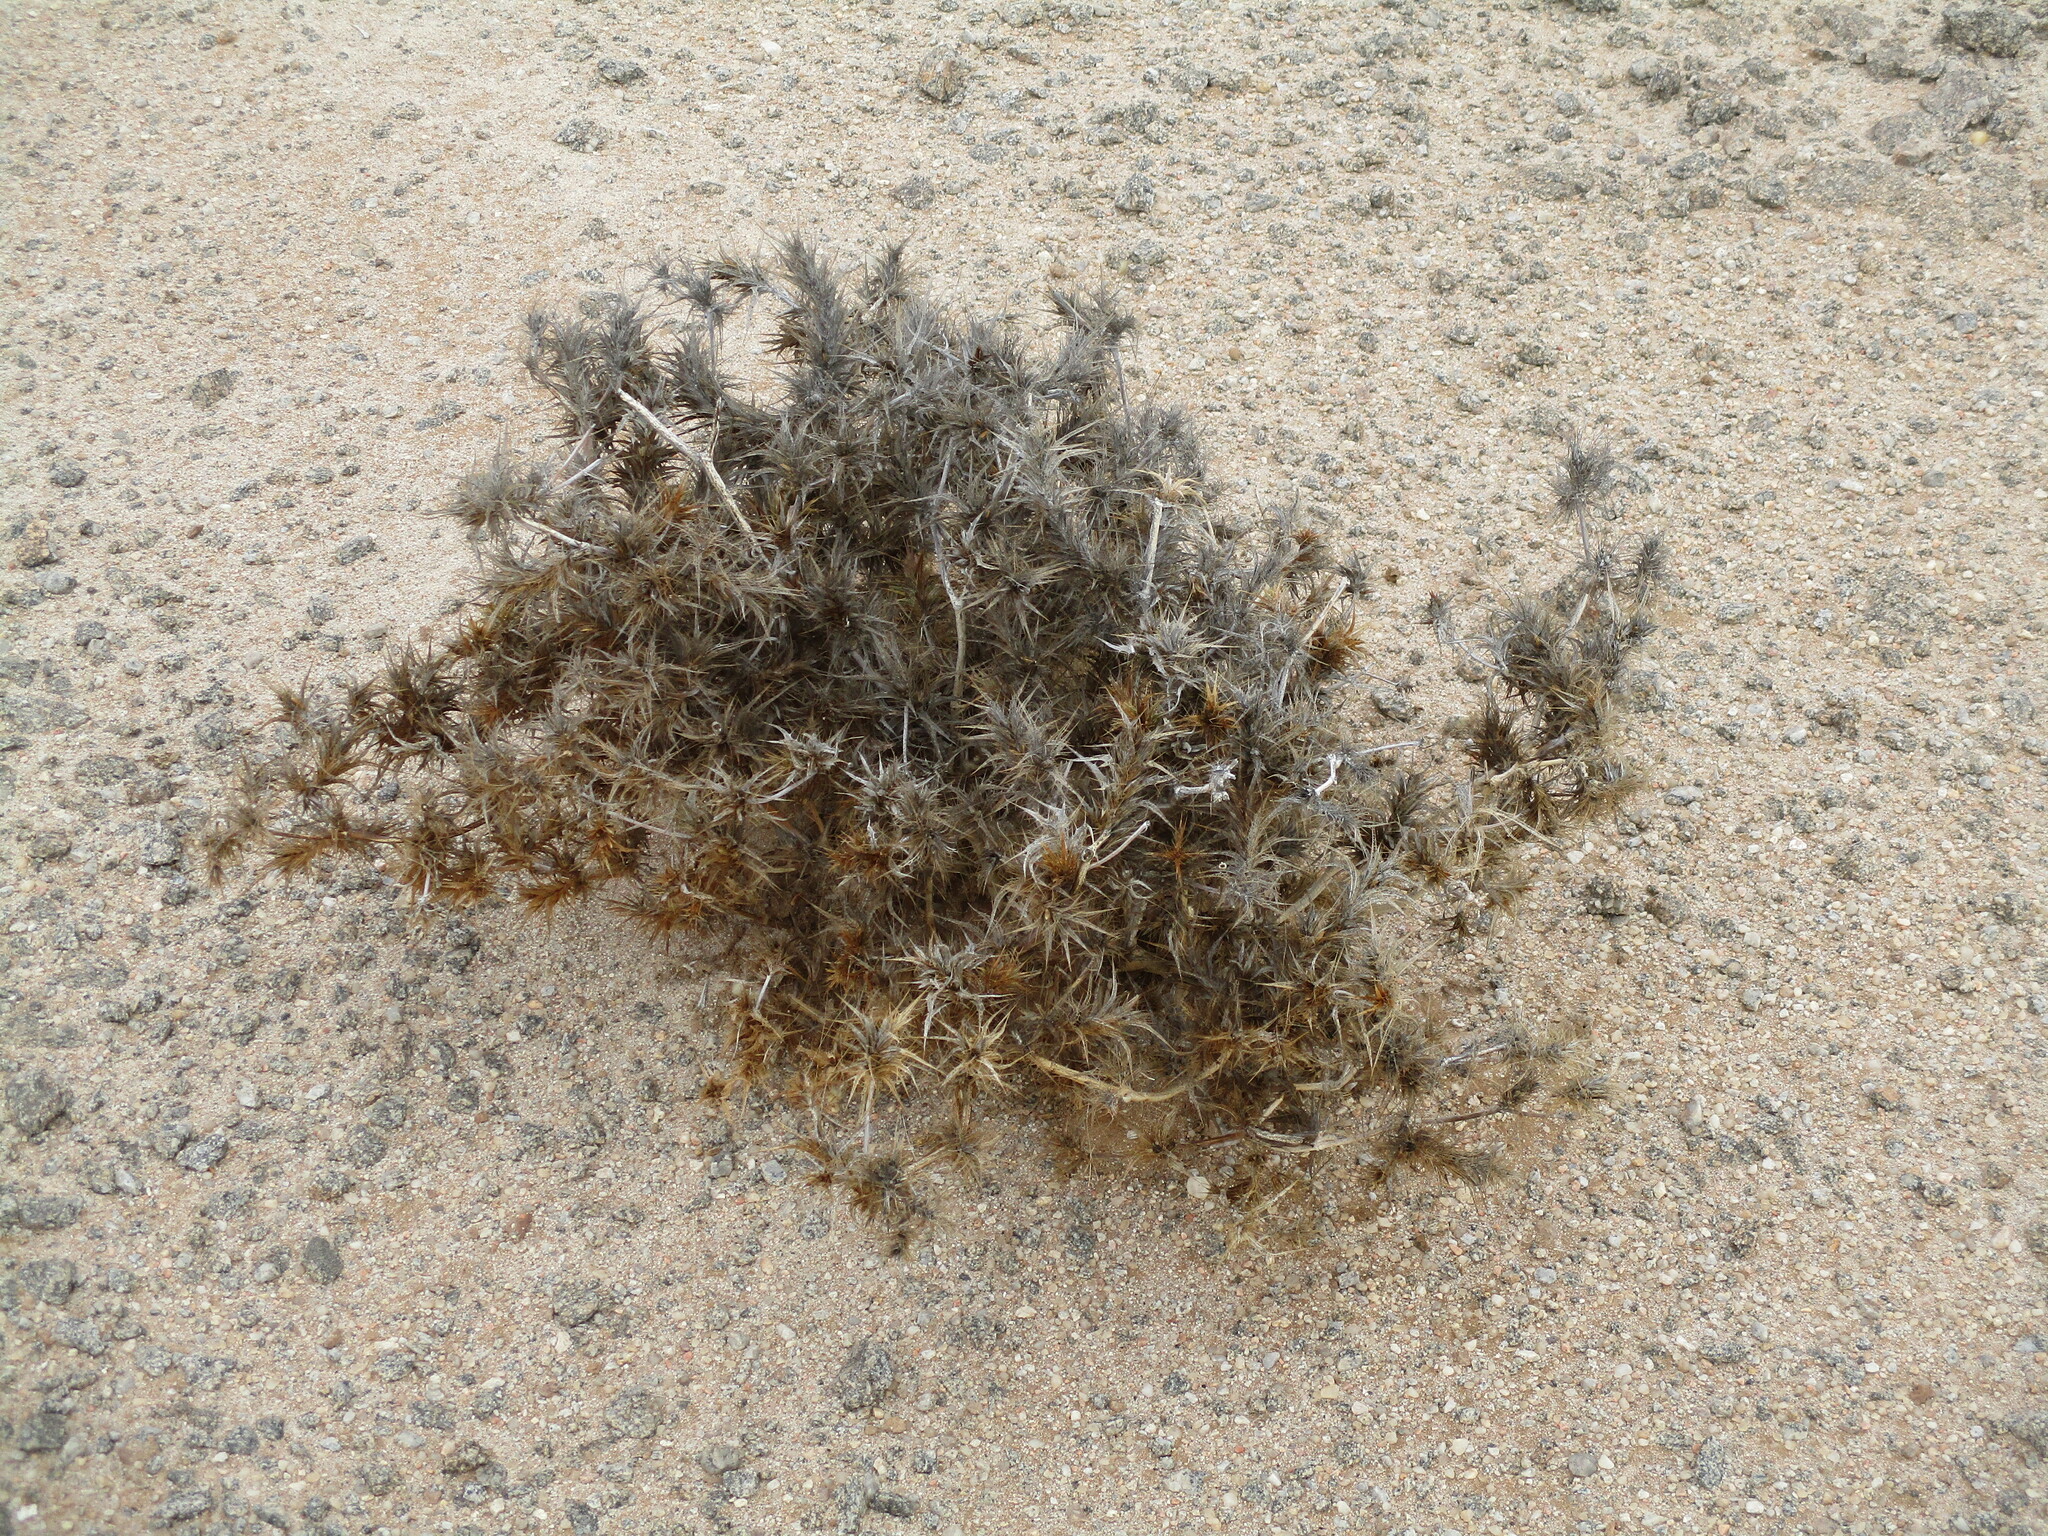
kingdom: Plantae
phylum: Tracheophyta
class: Magnoliopsida
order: Lamiales
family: Acanthaceae
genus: Blepharis
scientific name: Blepharis obmitrata
